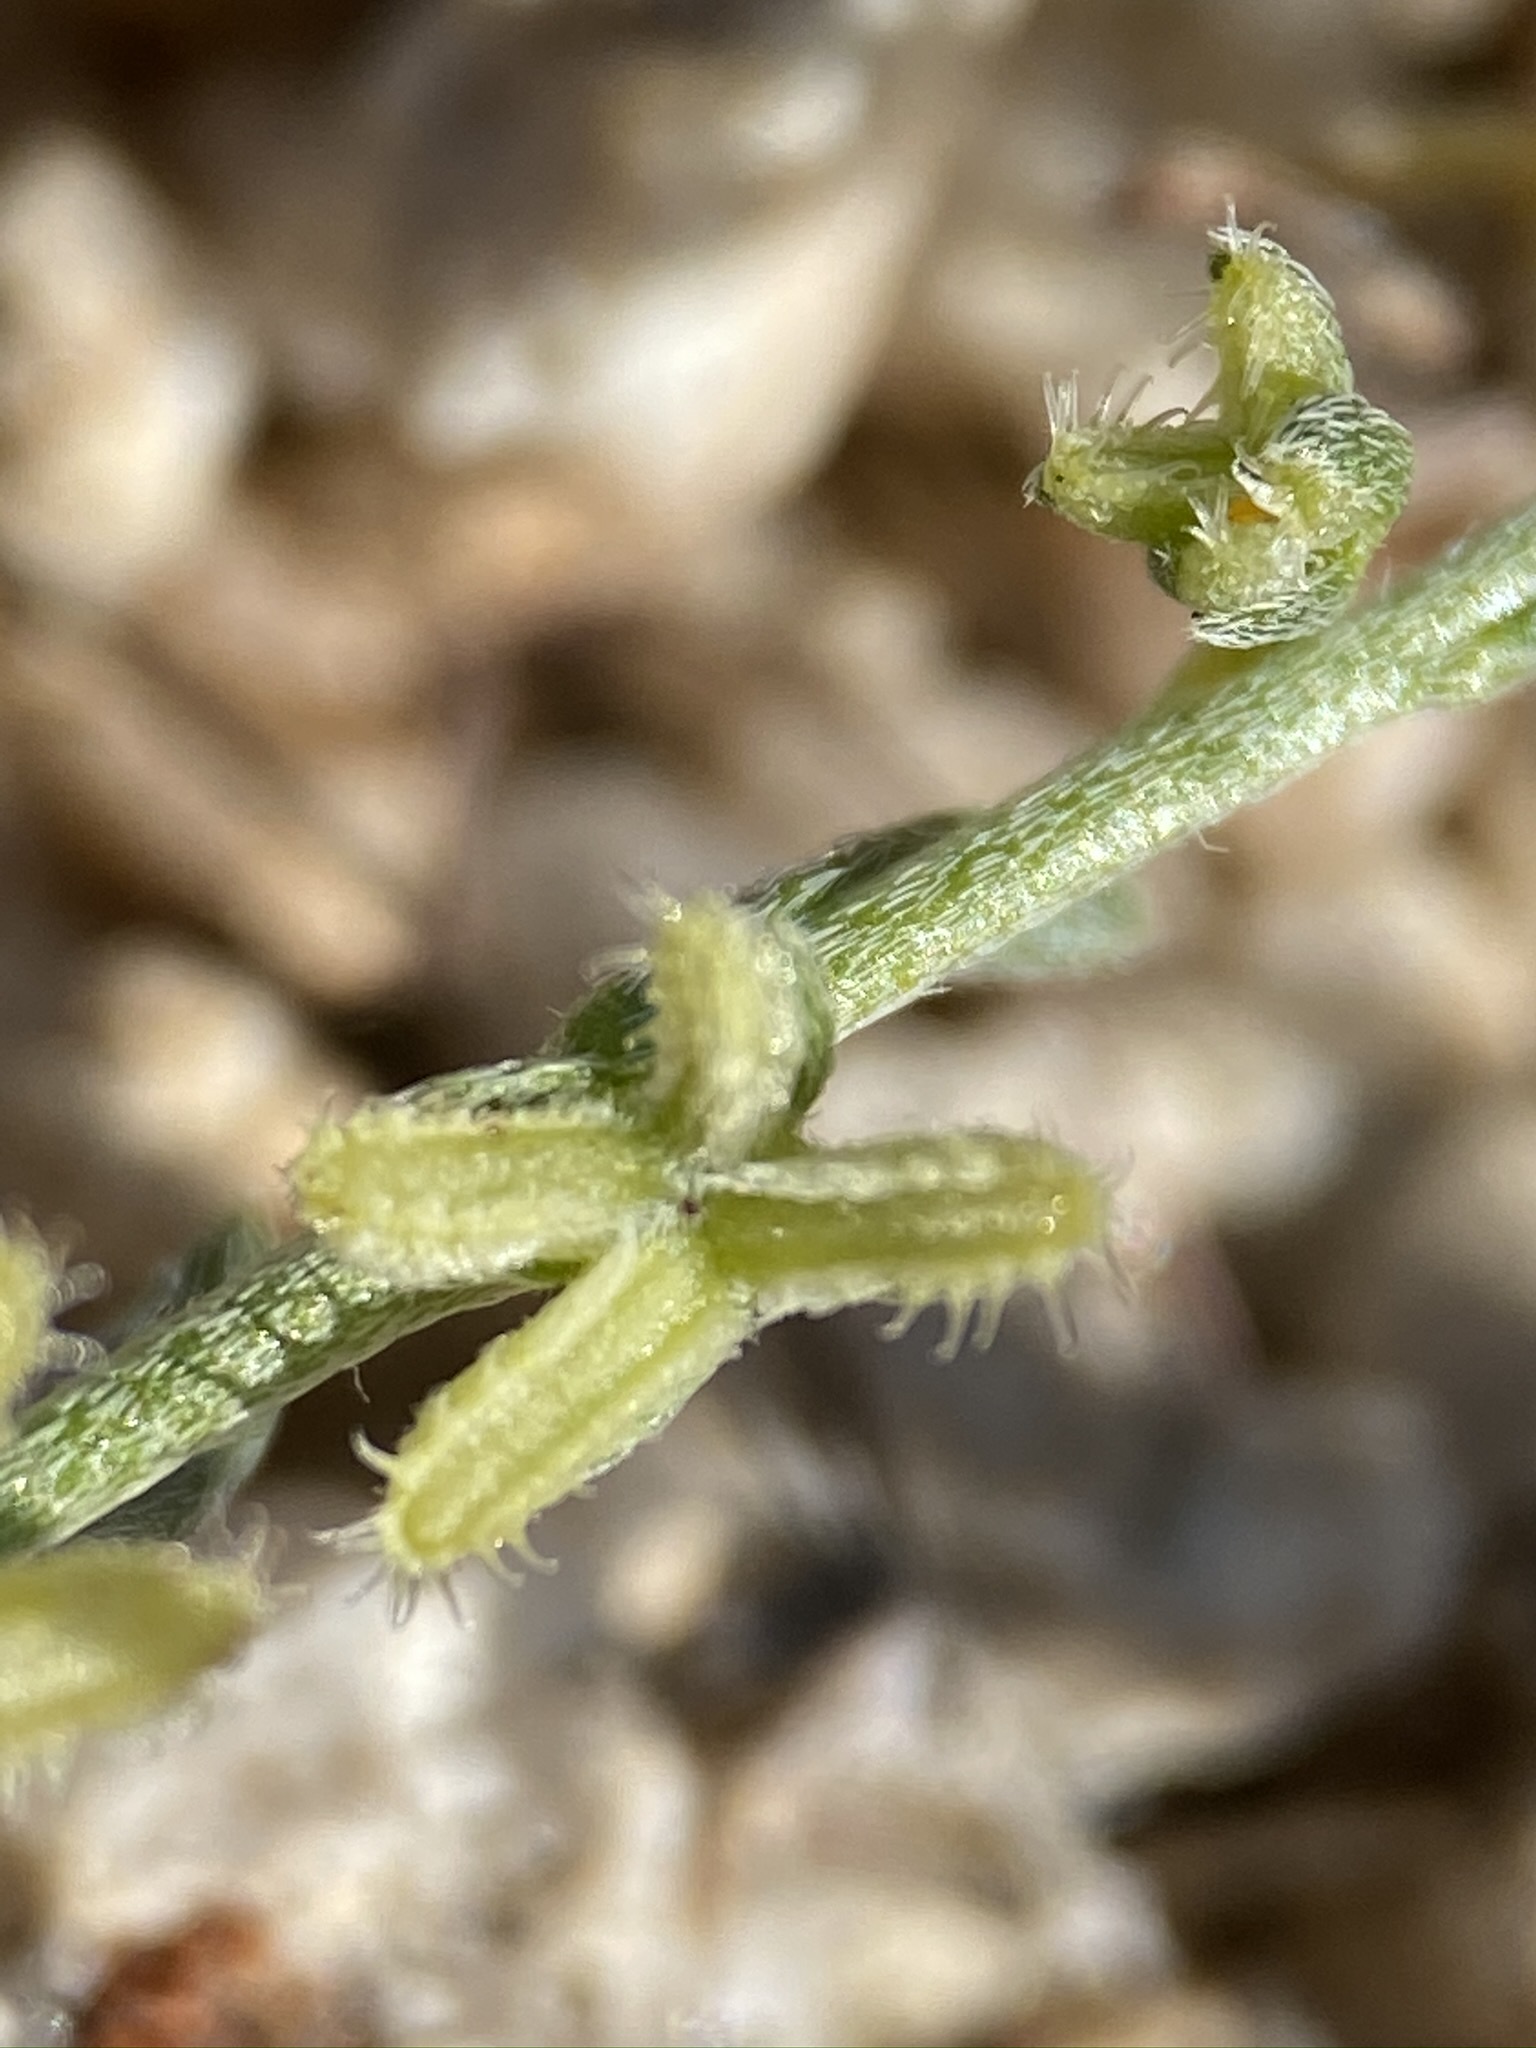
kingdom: Plantae
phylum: Tracheophyta
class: Magnoliopsida
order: Boraginales
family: Boraginaceae
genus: Pectocarya
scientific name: Pectocarya linearis
